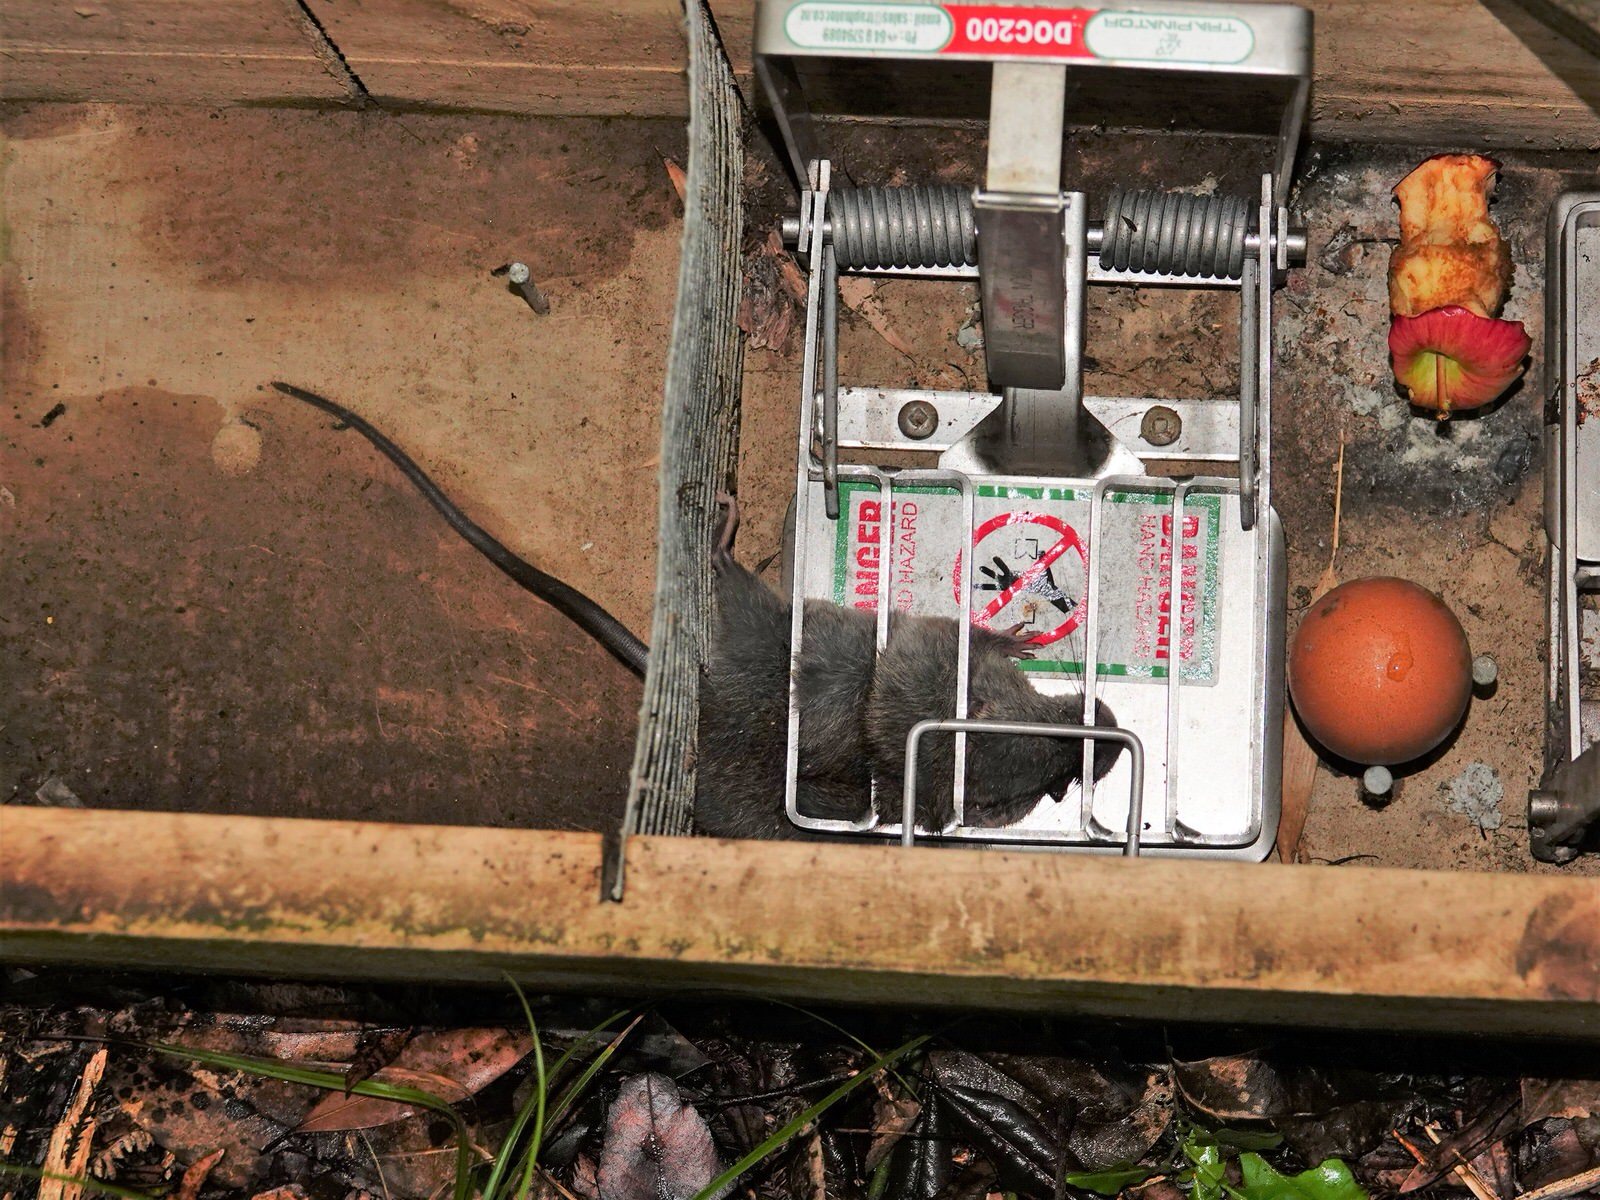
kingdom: Animalia
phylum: Chordata
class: Mammalia
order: Rodentia
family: Muridae
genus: Rattus
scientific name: Rattus rattus
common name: Black rat
